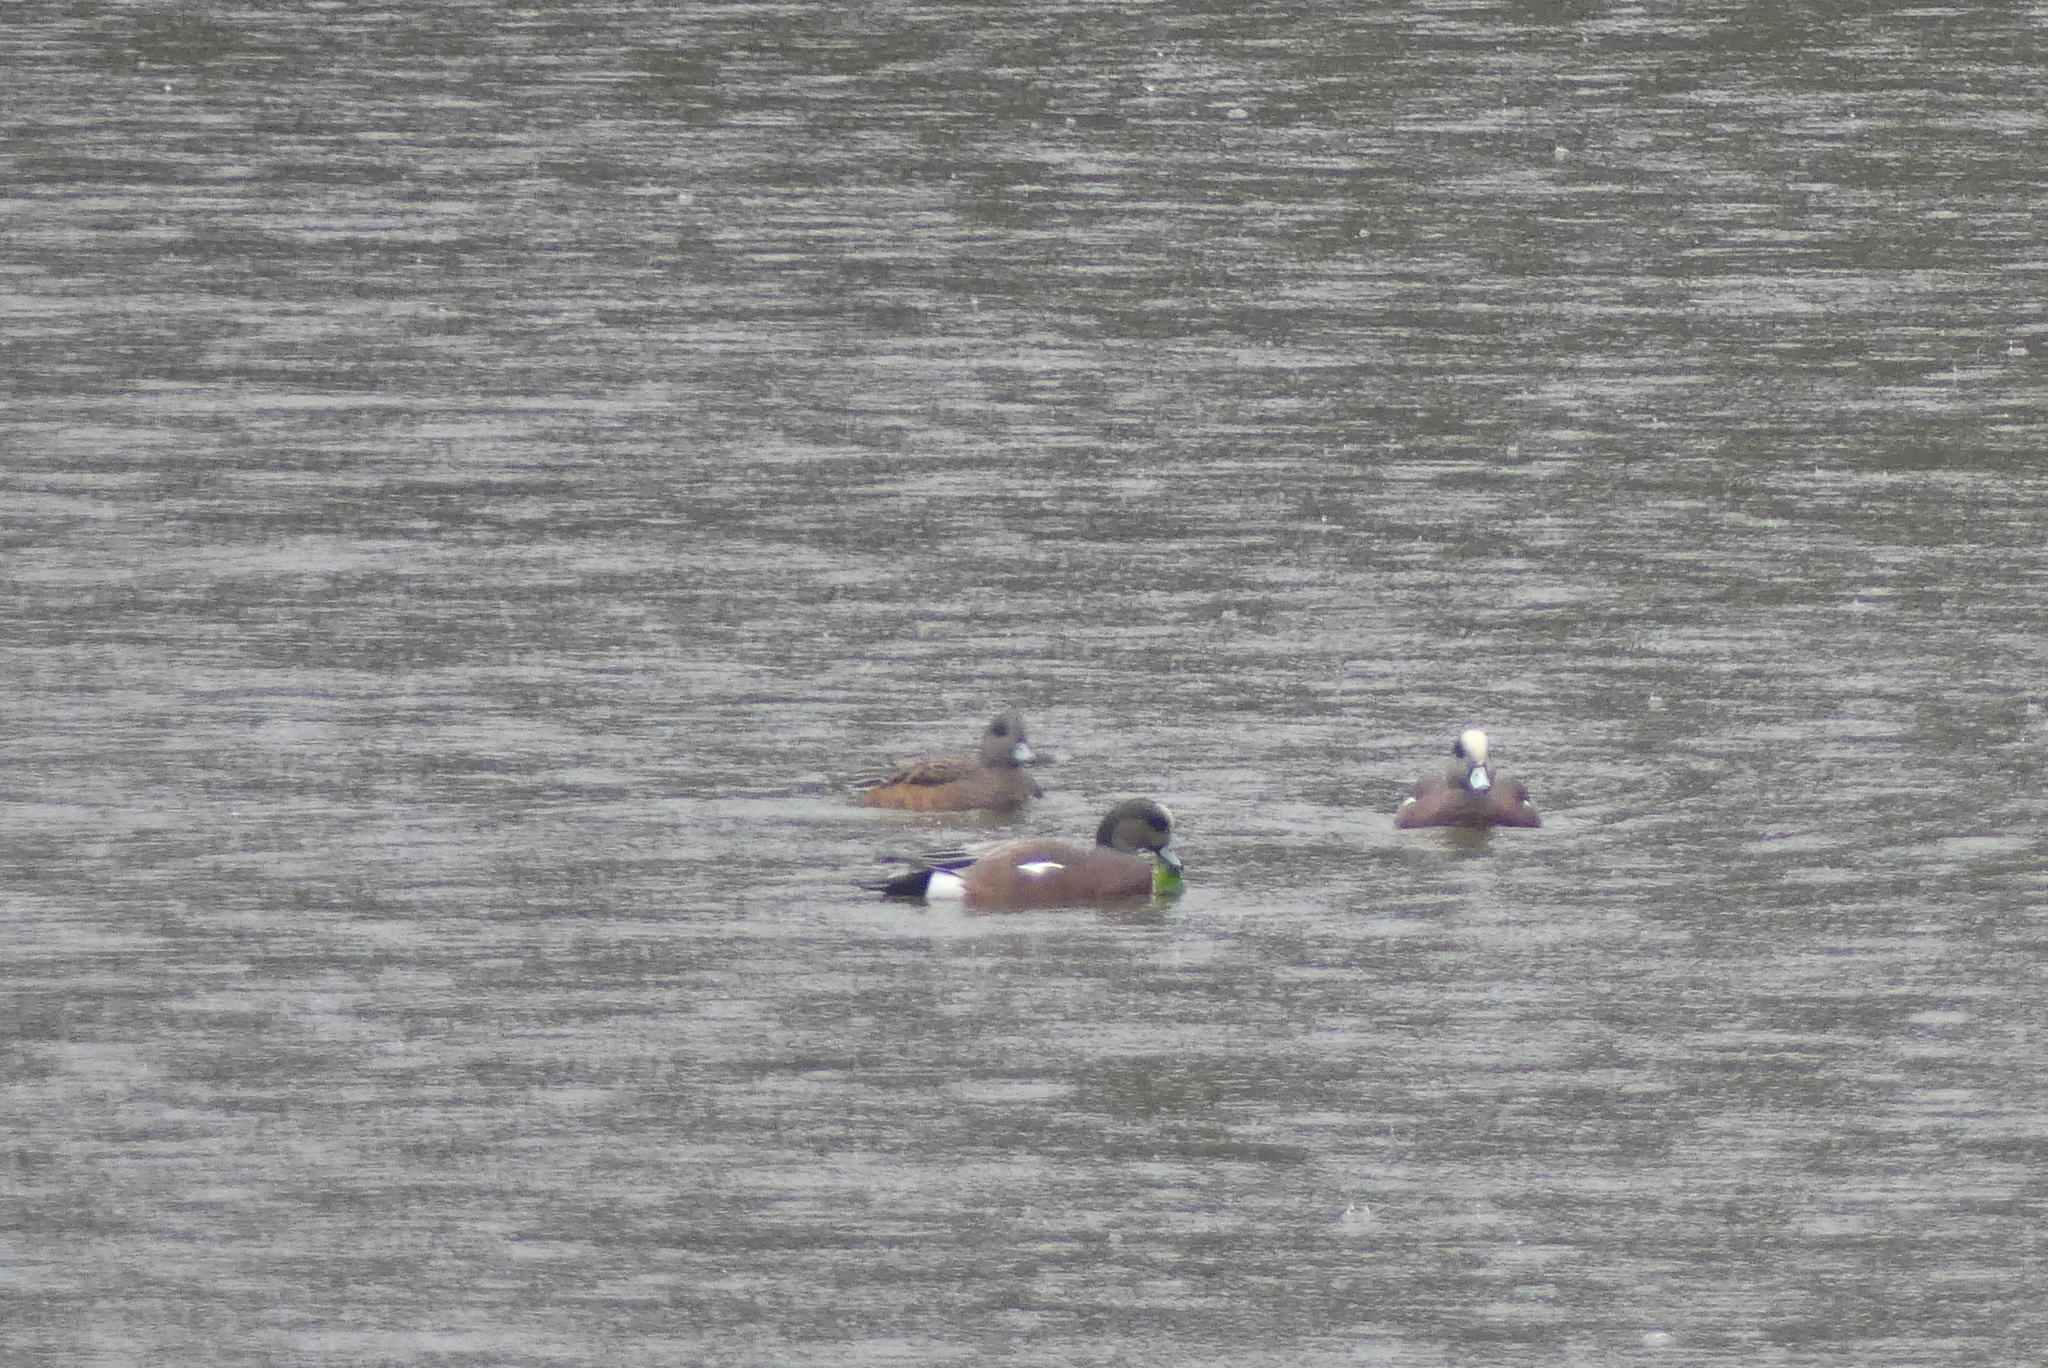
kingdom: Animalia
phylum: Chordata
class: Aves
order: Anseriformes
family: Anatidae
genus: Mareca
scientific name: Mareca americana
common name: American wigeon
